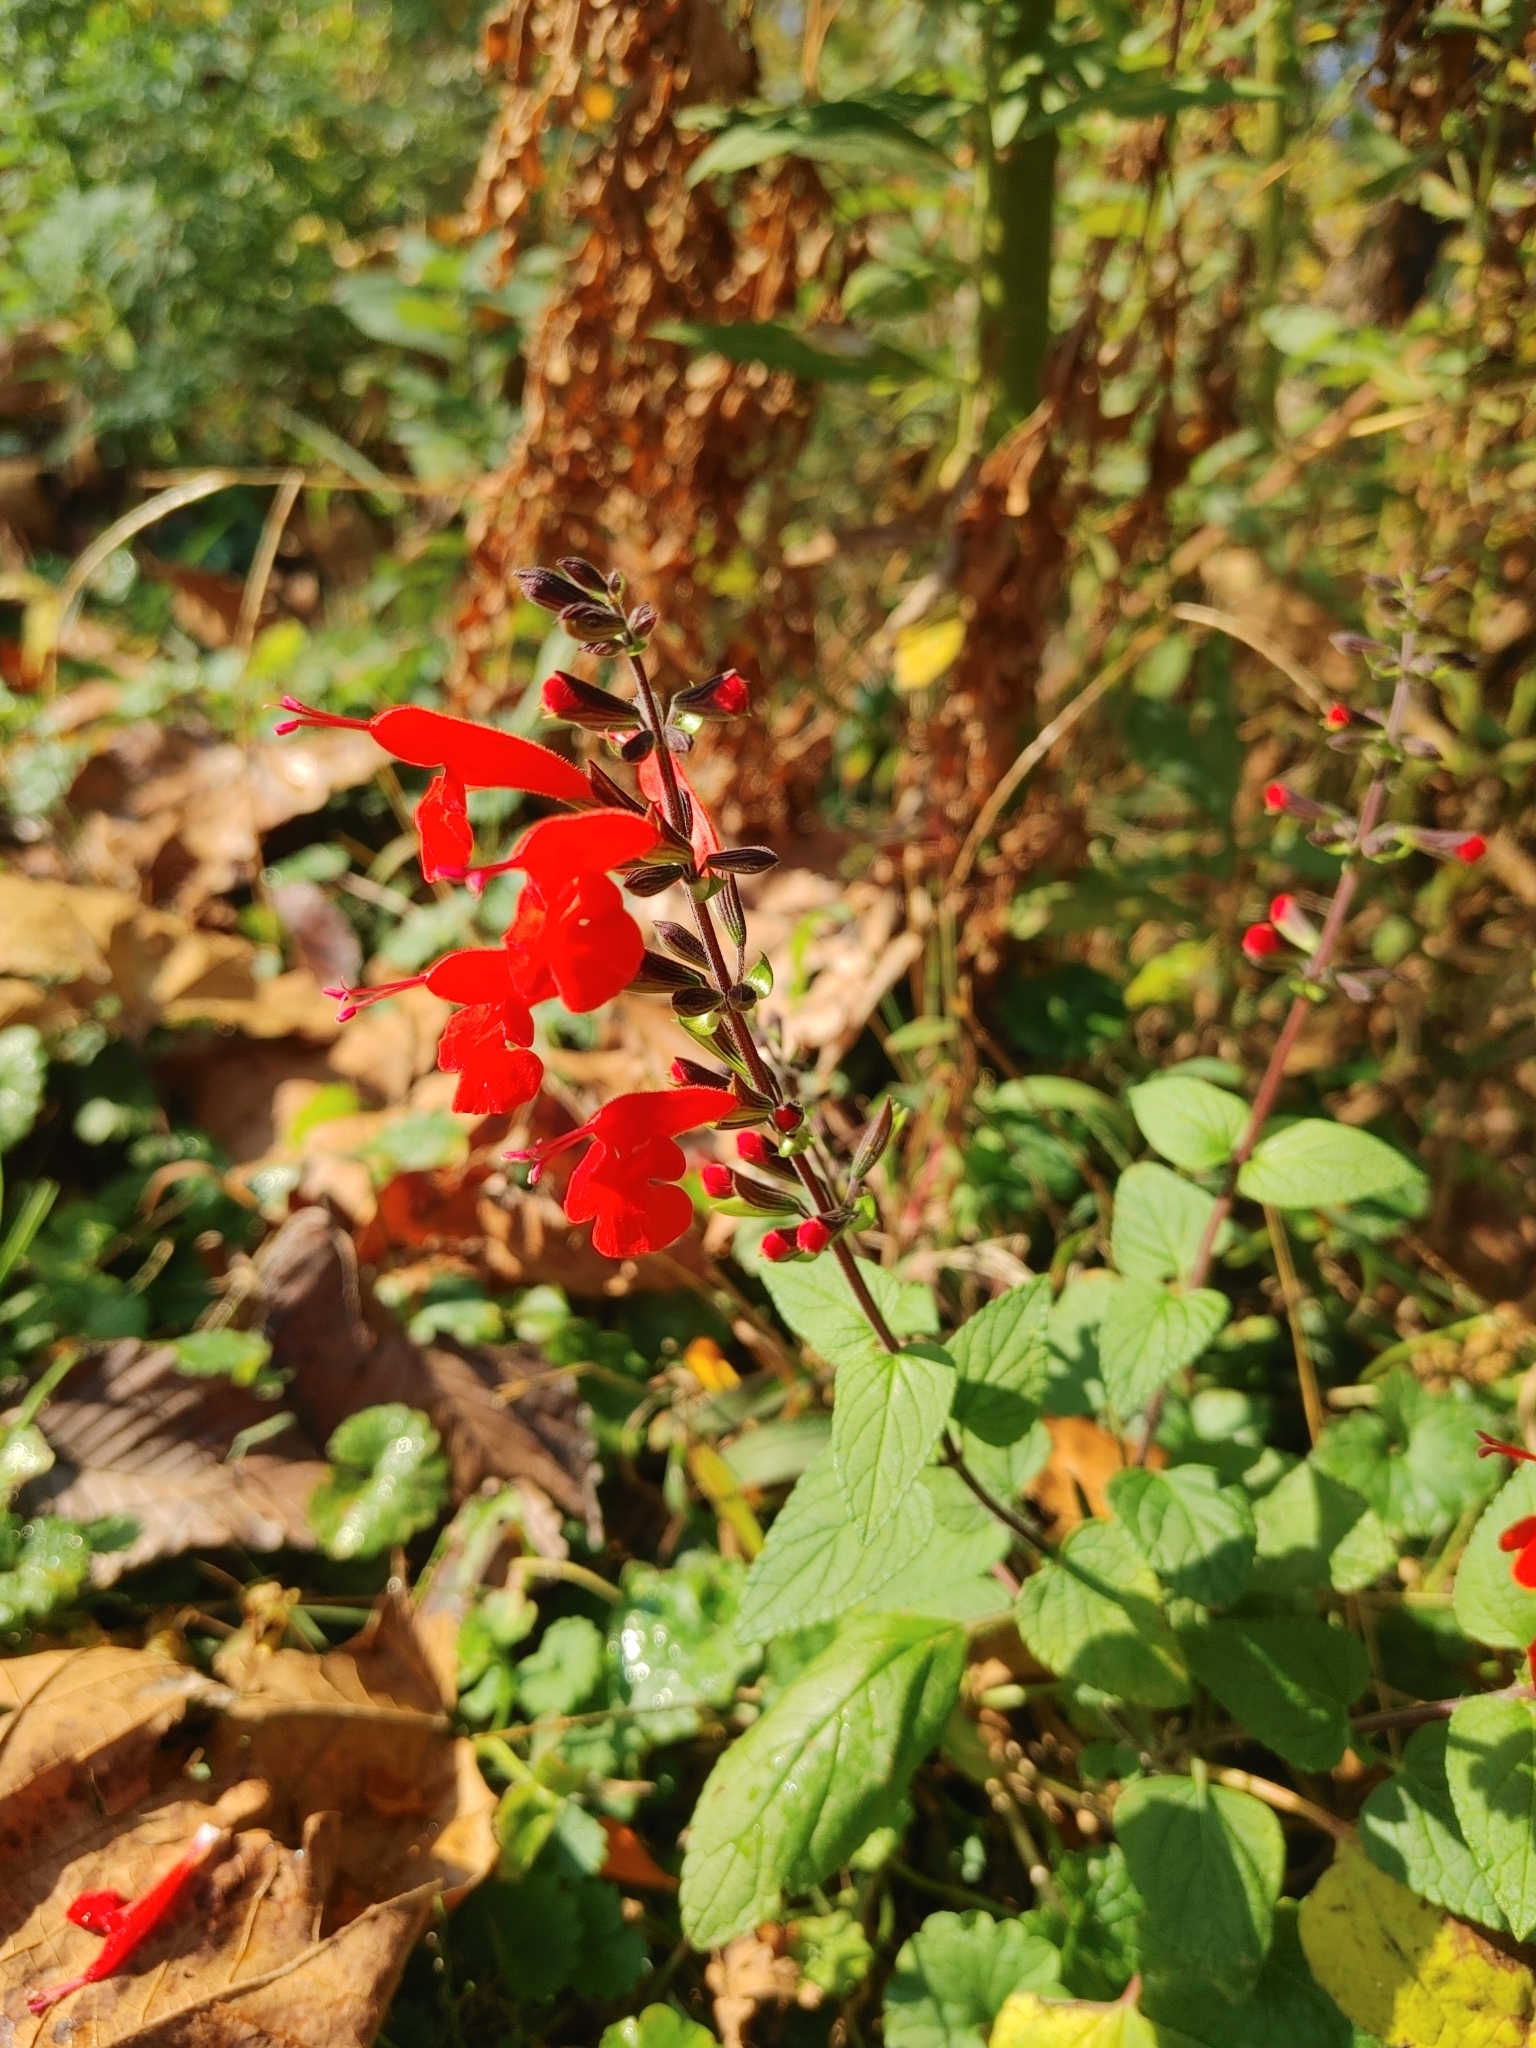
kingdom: Plantae
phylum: Tracheophyta
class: Magnoliopsida
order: Lamiales
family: Lamiaceae
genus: Salvia
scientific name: Salvia coccinea
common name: Blood sage
